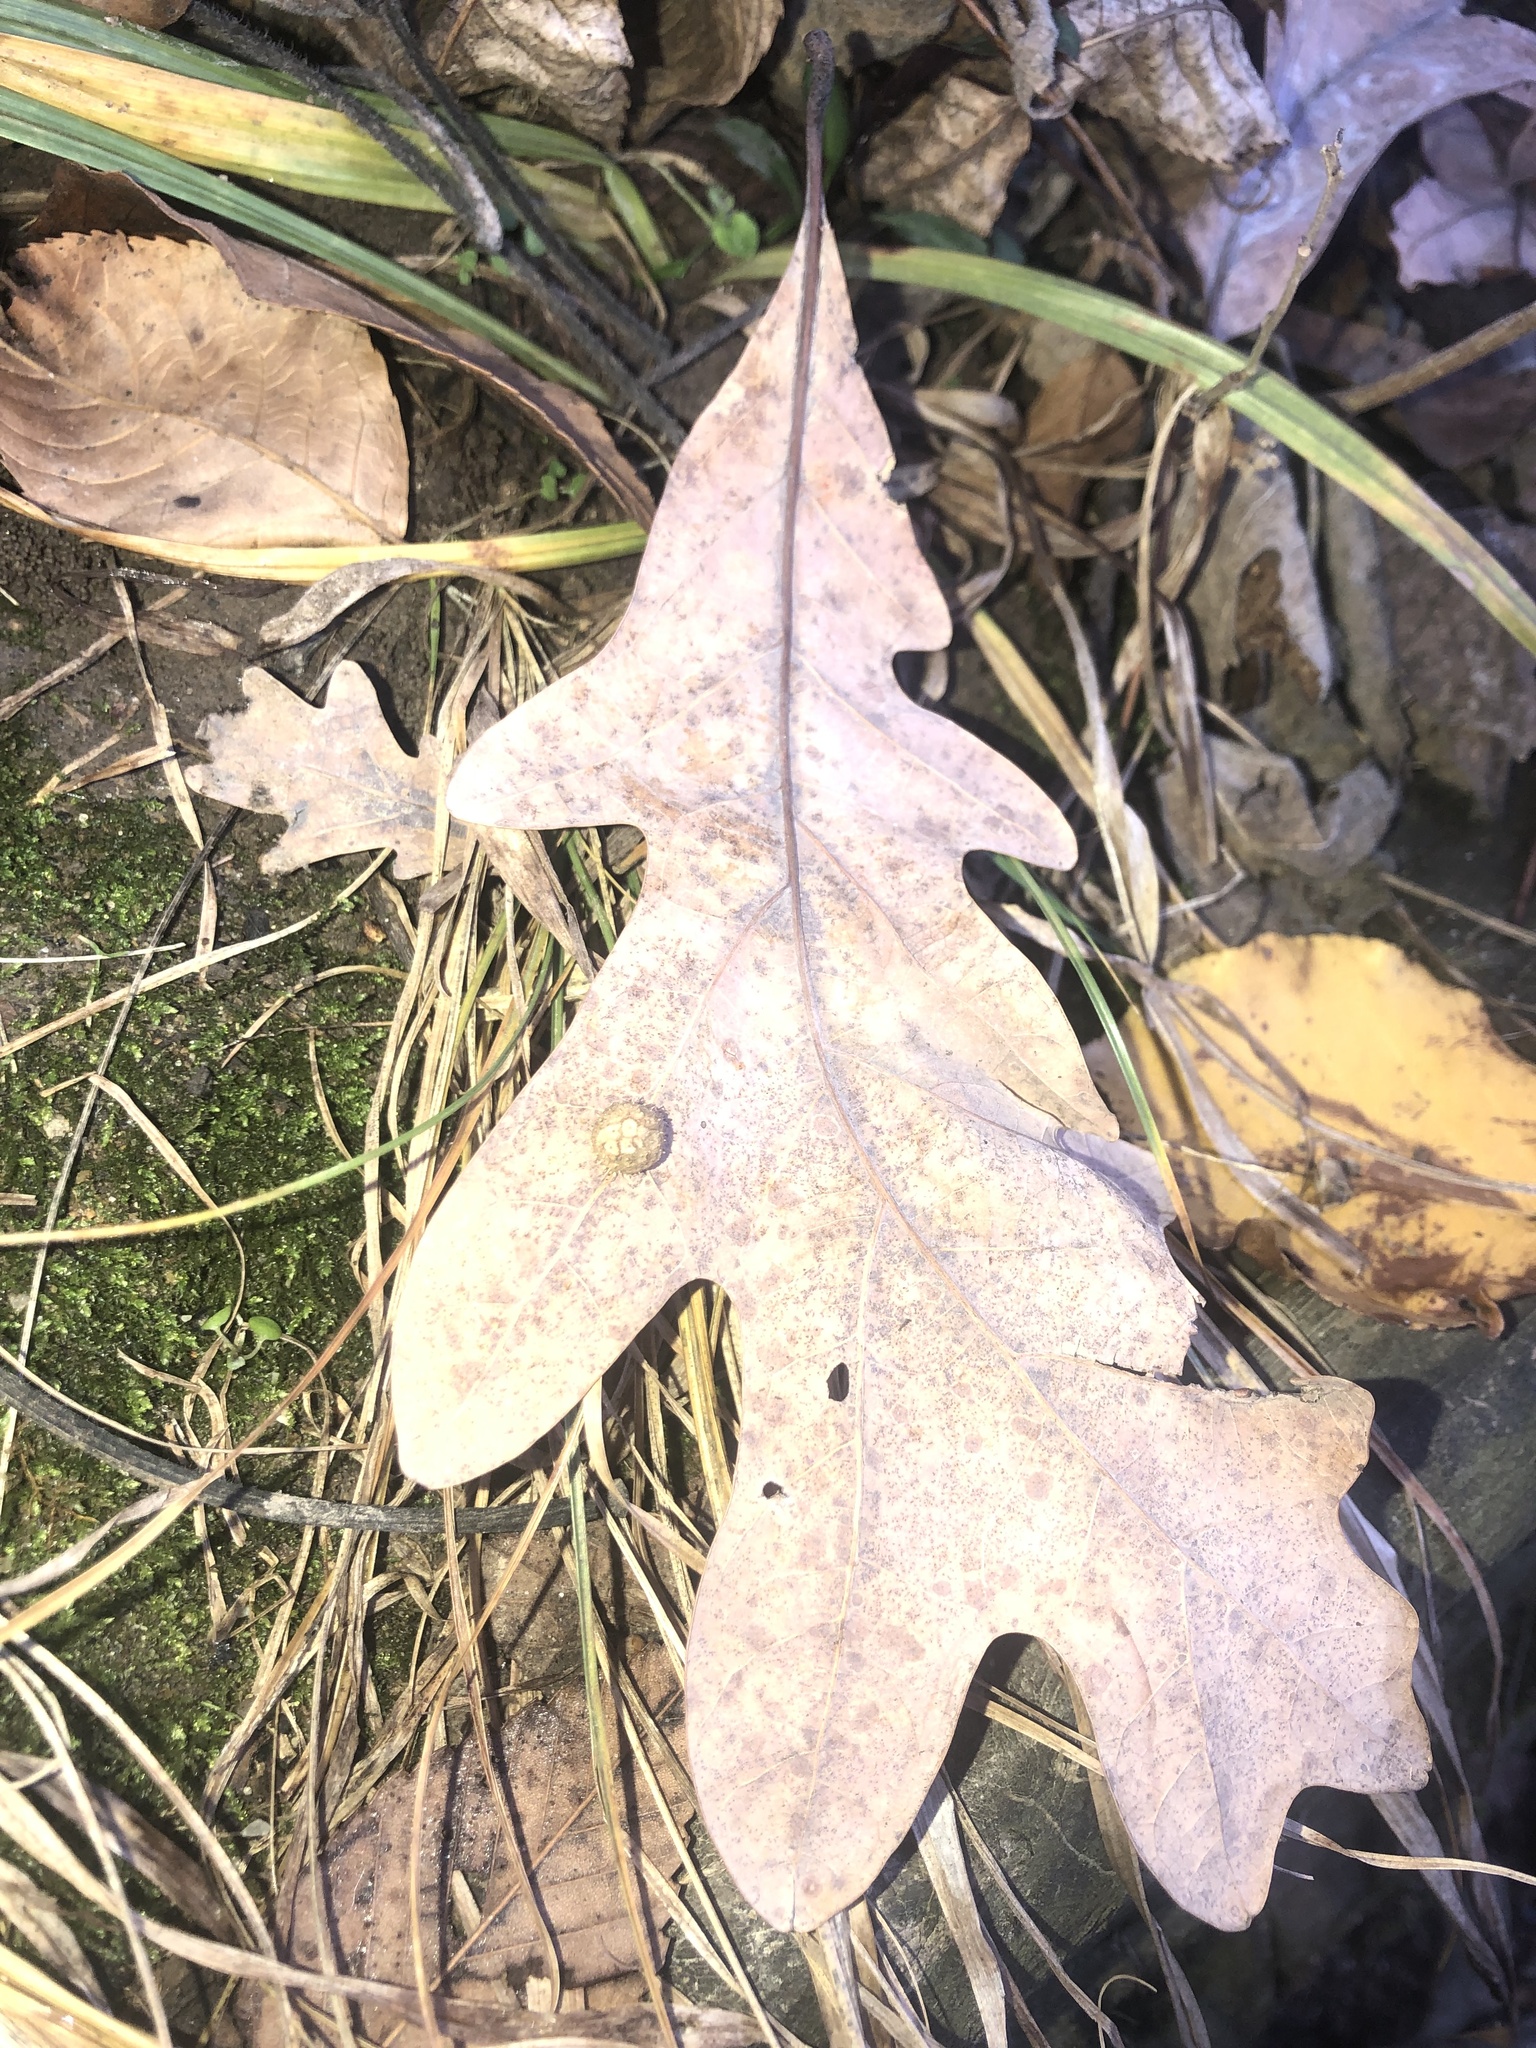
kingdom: Animalia
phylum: Arthropoda
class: Insecta
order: Hymenoptera
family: Cynipidae
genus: Acraspis
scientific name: Acraspis
